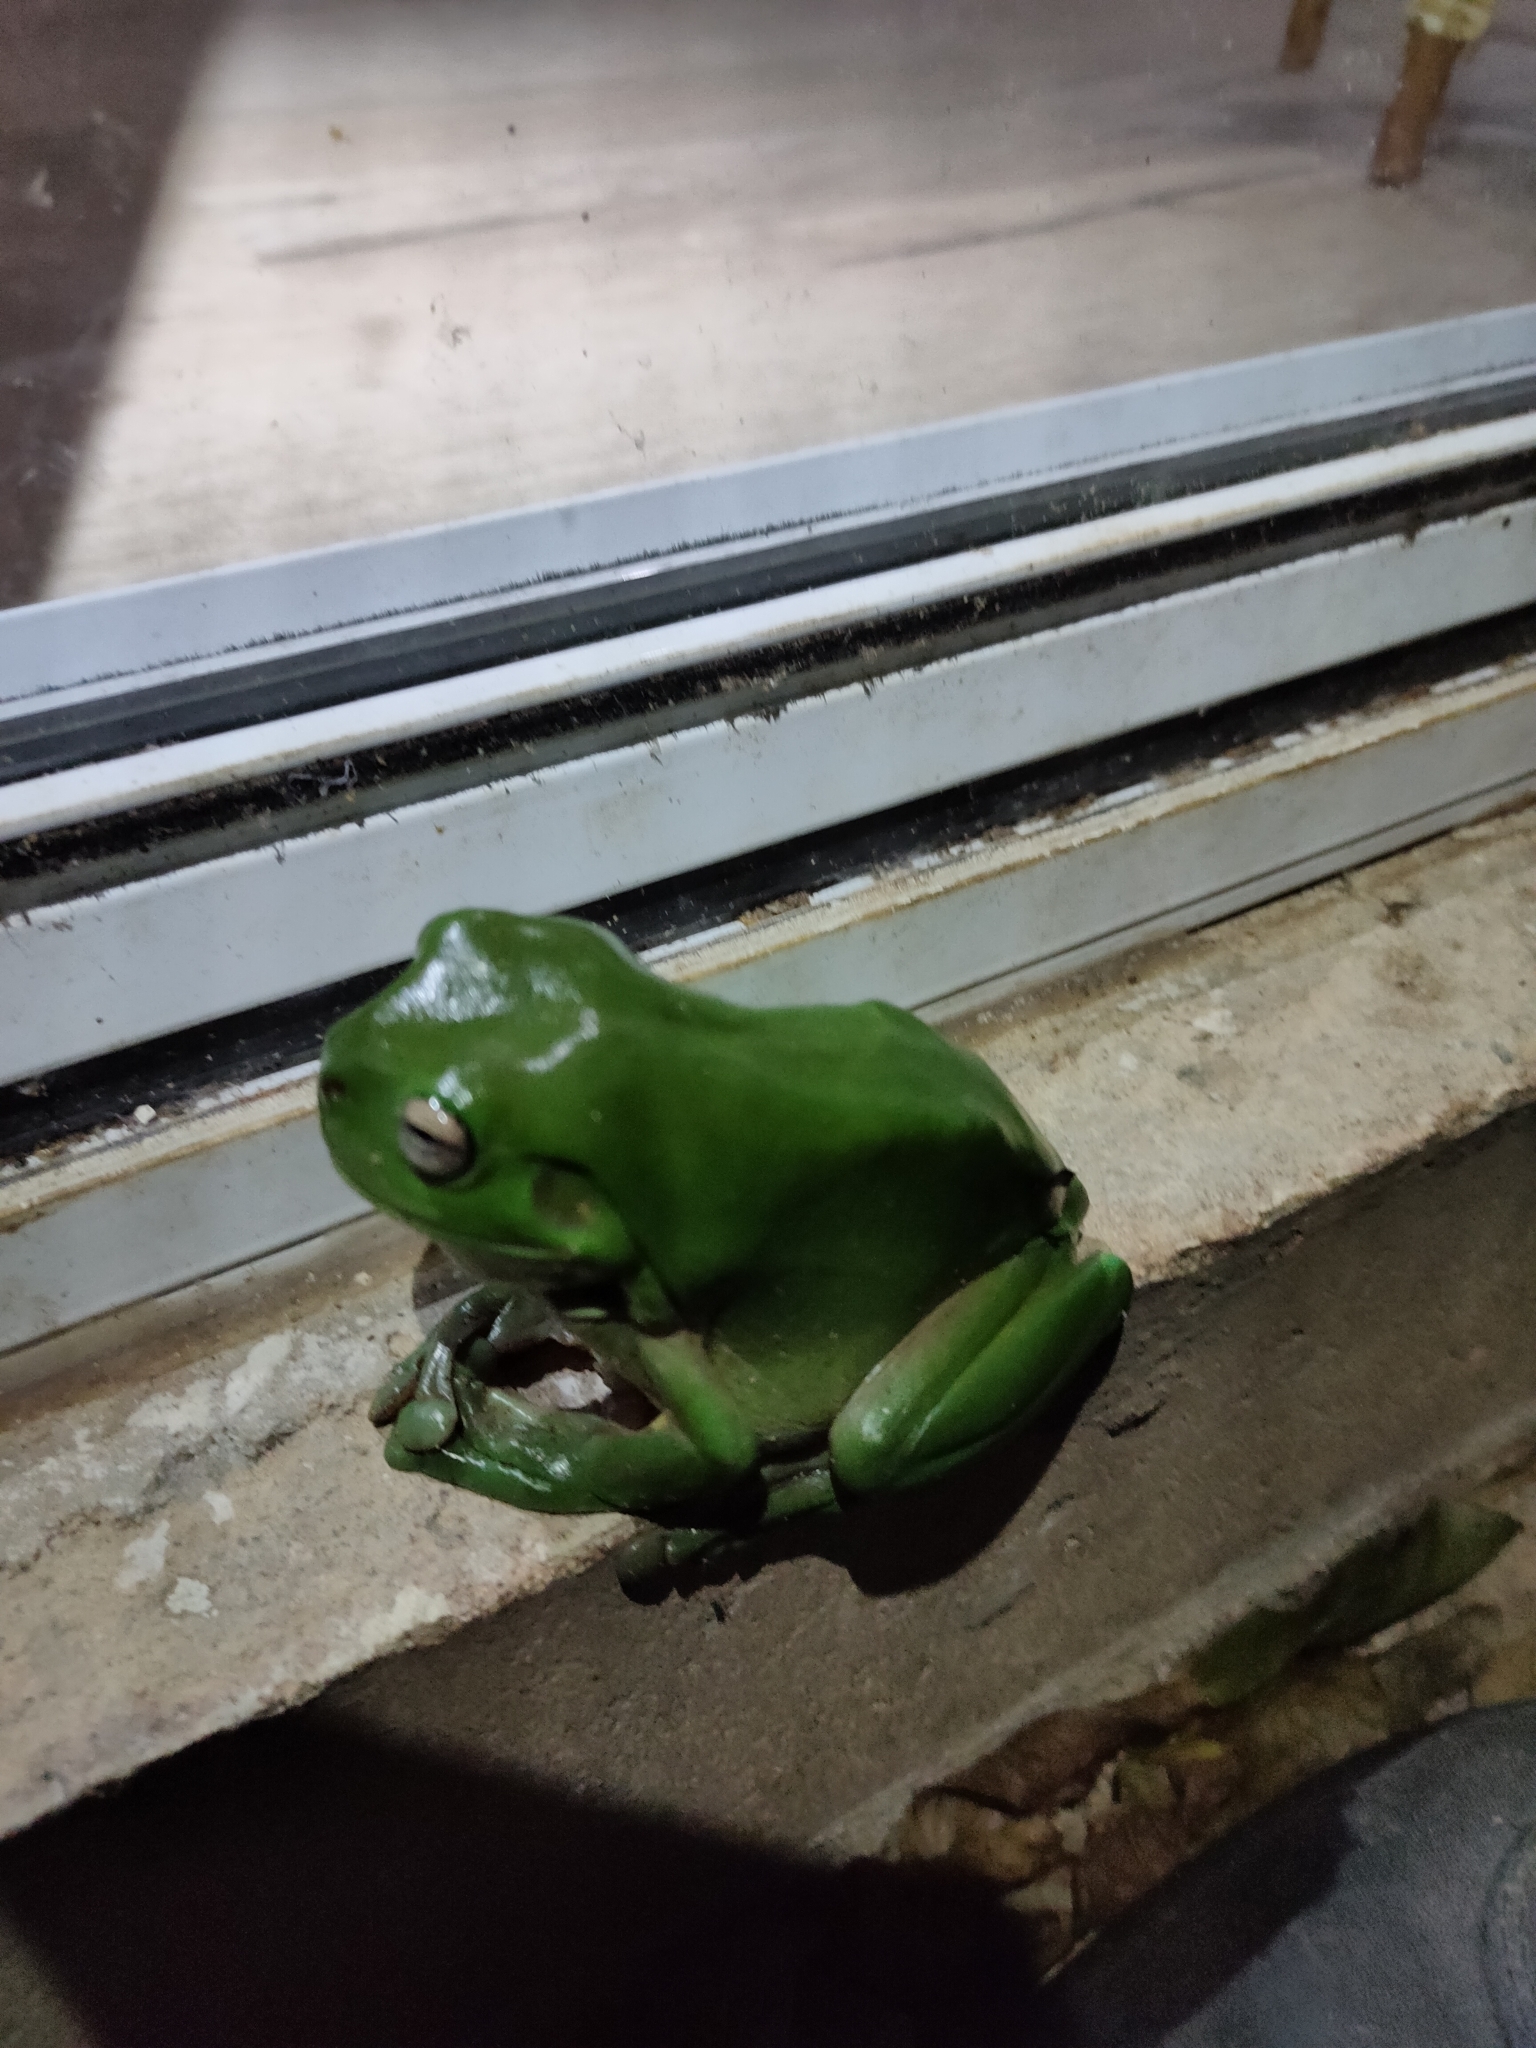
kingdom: Animalia
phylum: Chordata
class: Amphibia
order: Anura
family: Pelodryadidae
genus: Ranoidea
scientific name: Ranoidea caerulea
